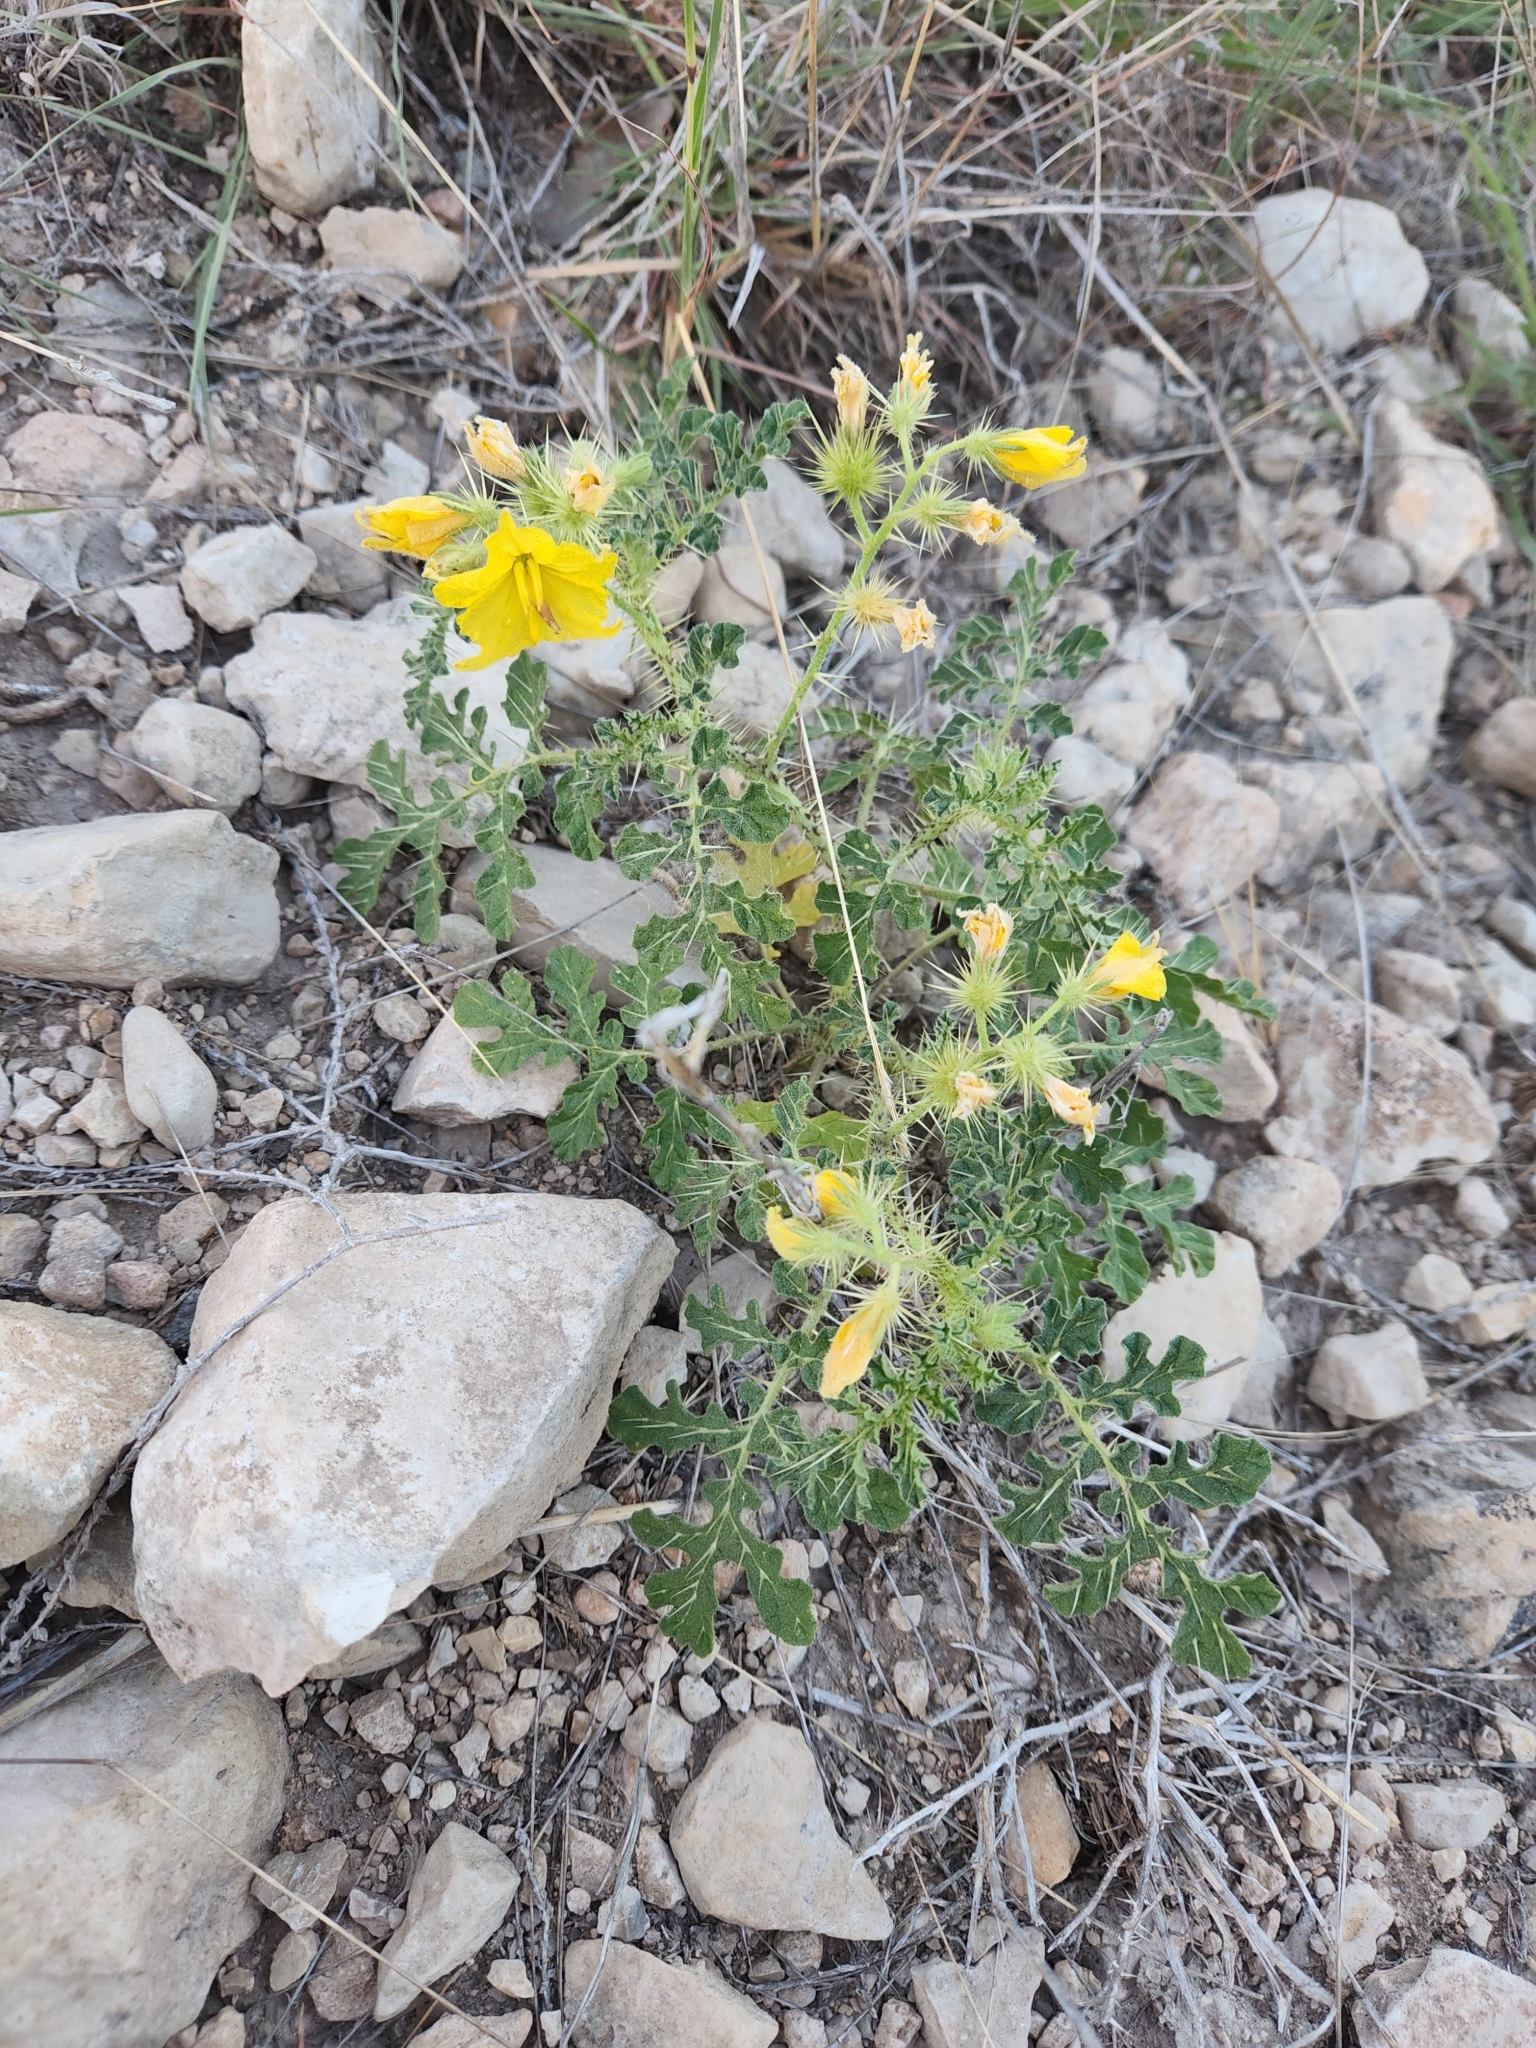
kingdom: Plantae
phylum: Tracheophyta
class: Magnoliopsida
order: Solanales
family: Solanaceae
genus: Solanum
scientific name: Solanum angustifolium
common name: Buffalobur nightshade
